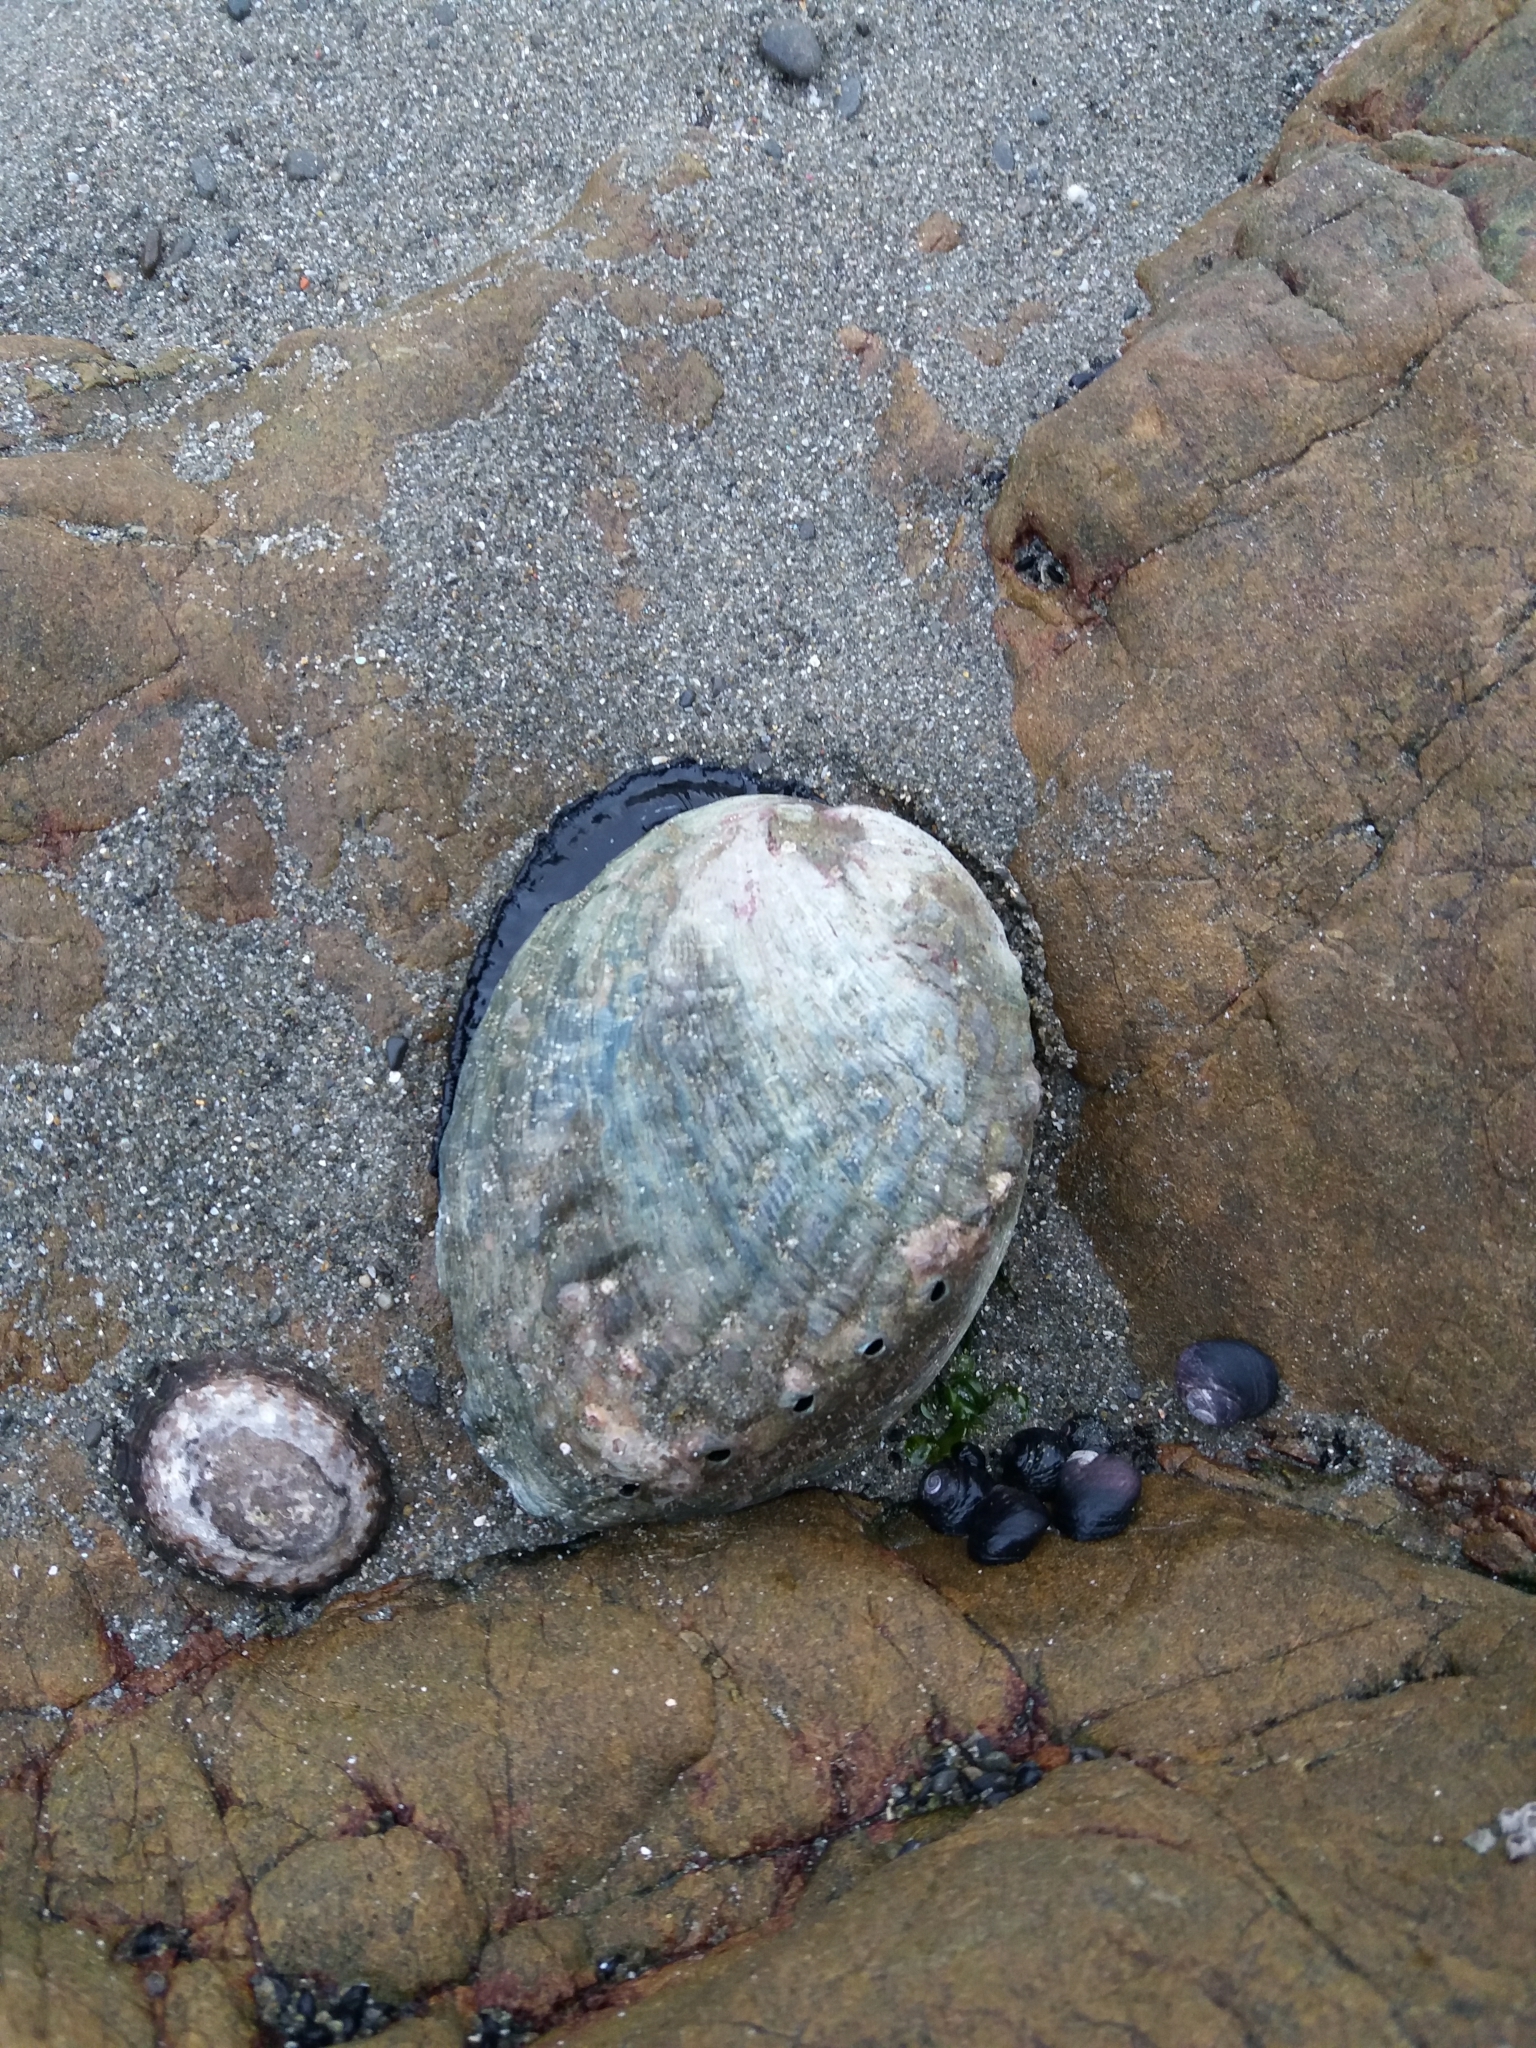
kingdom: Animalia
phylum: Mollusca
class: Gastropoda
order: Lepetellida
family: Haliotidae
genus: Haliotis
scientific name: Haliotis iris
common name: Abalone
